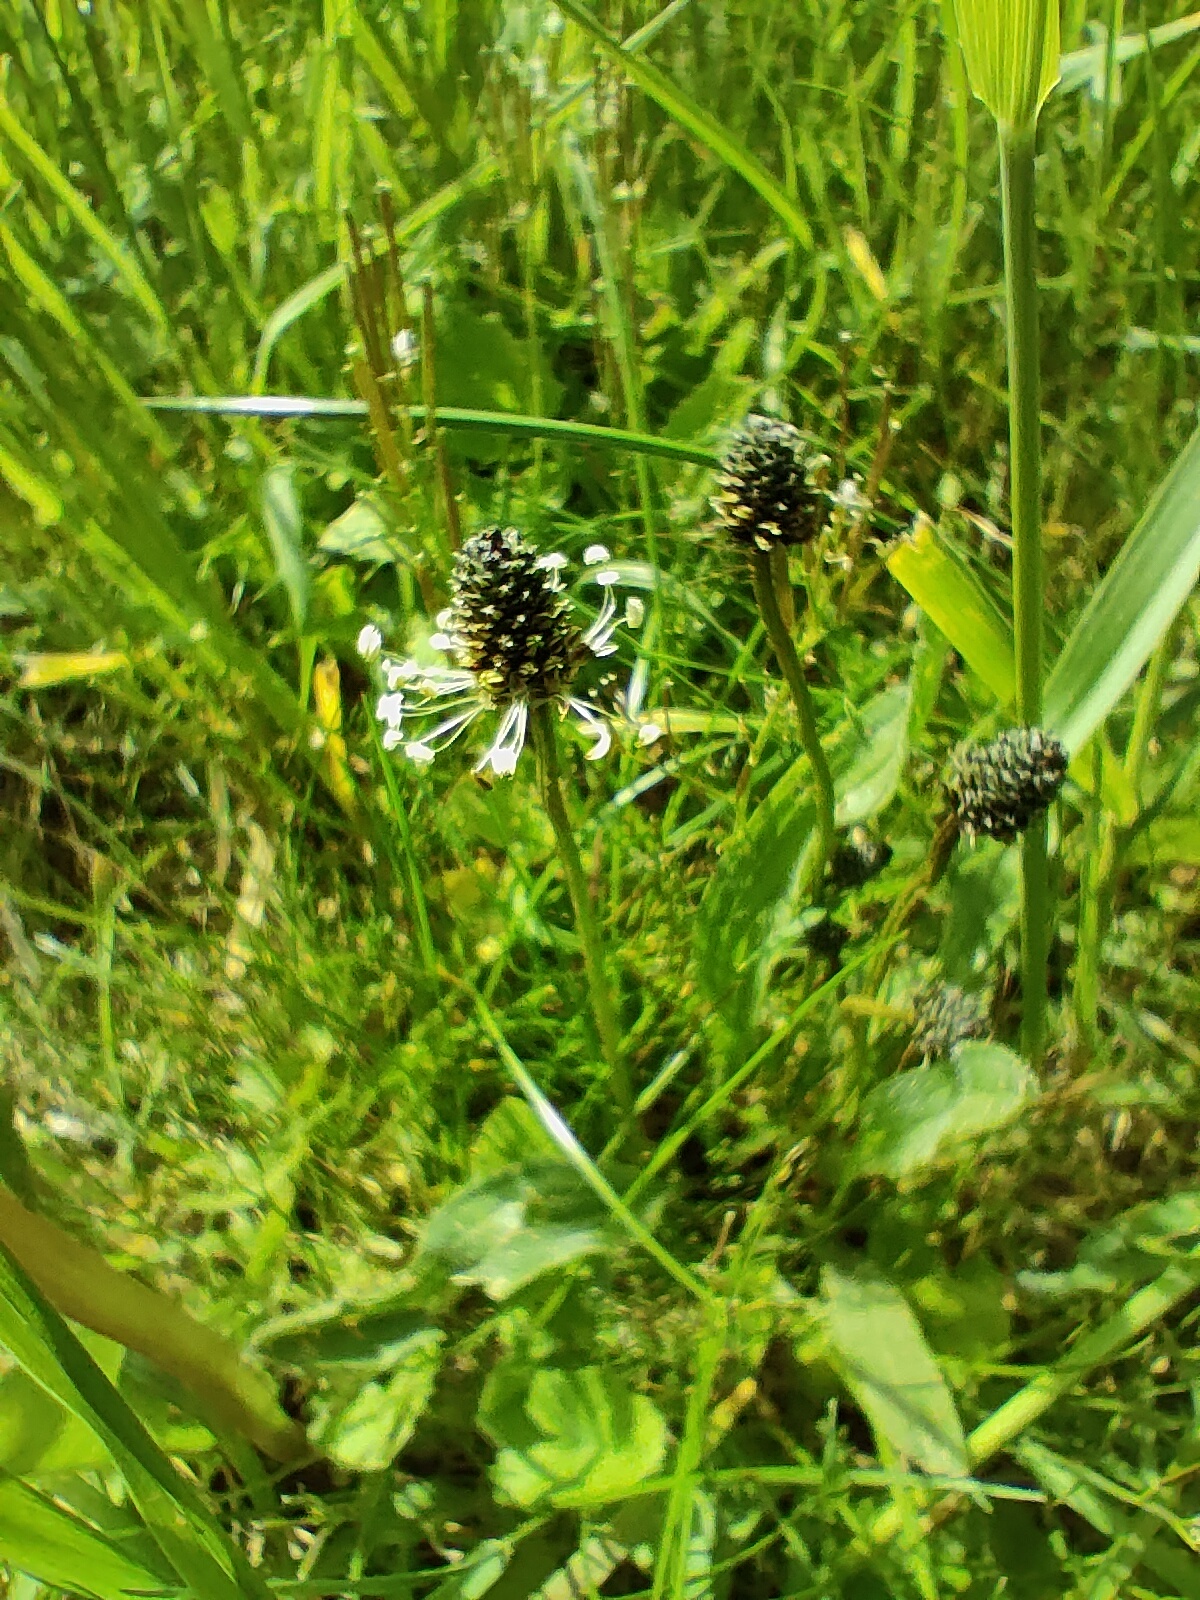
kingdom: Plantae
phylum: Tracheophyta
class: Magnoliopsida
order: Lamiales
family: Plantaginaceae
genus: Plantago
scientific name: Plantago lanceolata
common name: Ribwort plantain
